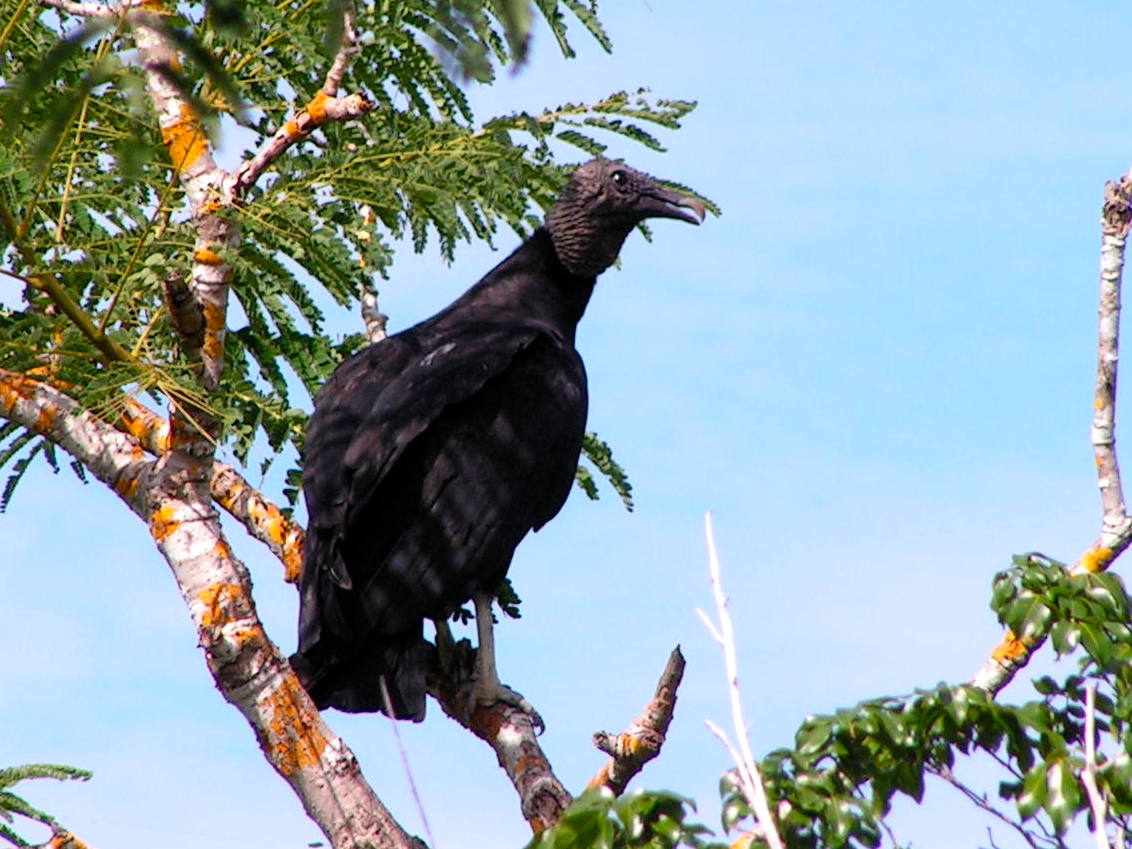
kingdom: Animalia
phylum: Chordata
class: Aves
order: Accipitriformes
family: Cathartidae
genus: Coragyps
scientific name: Coragyps atratus
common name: Black vulture
